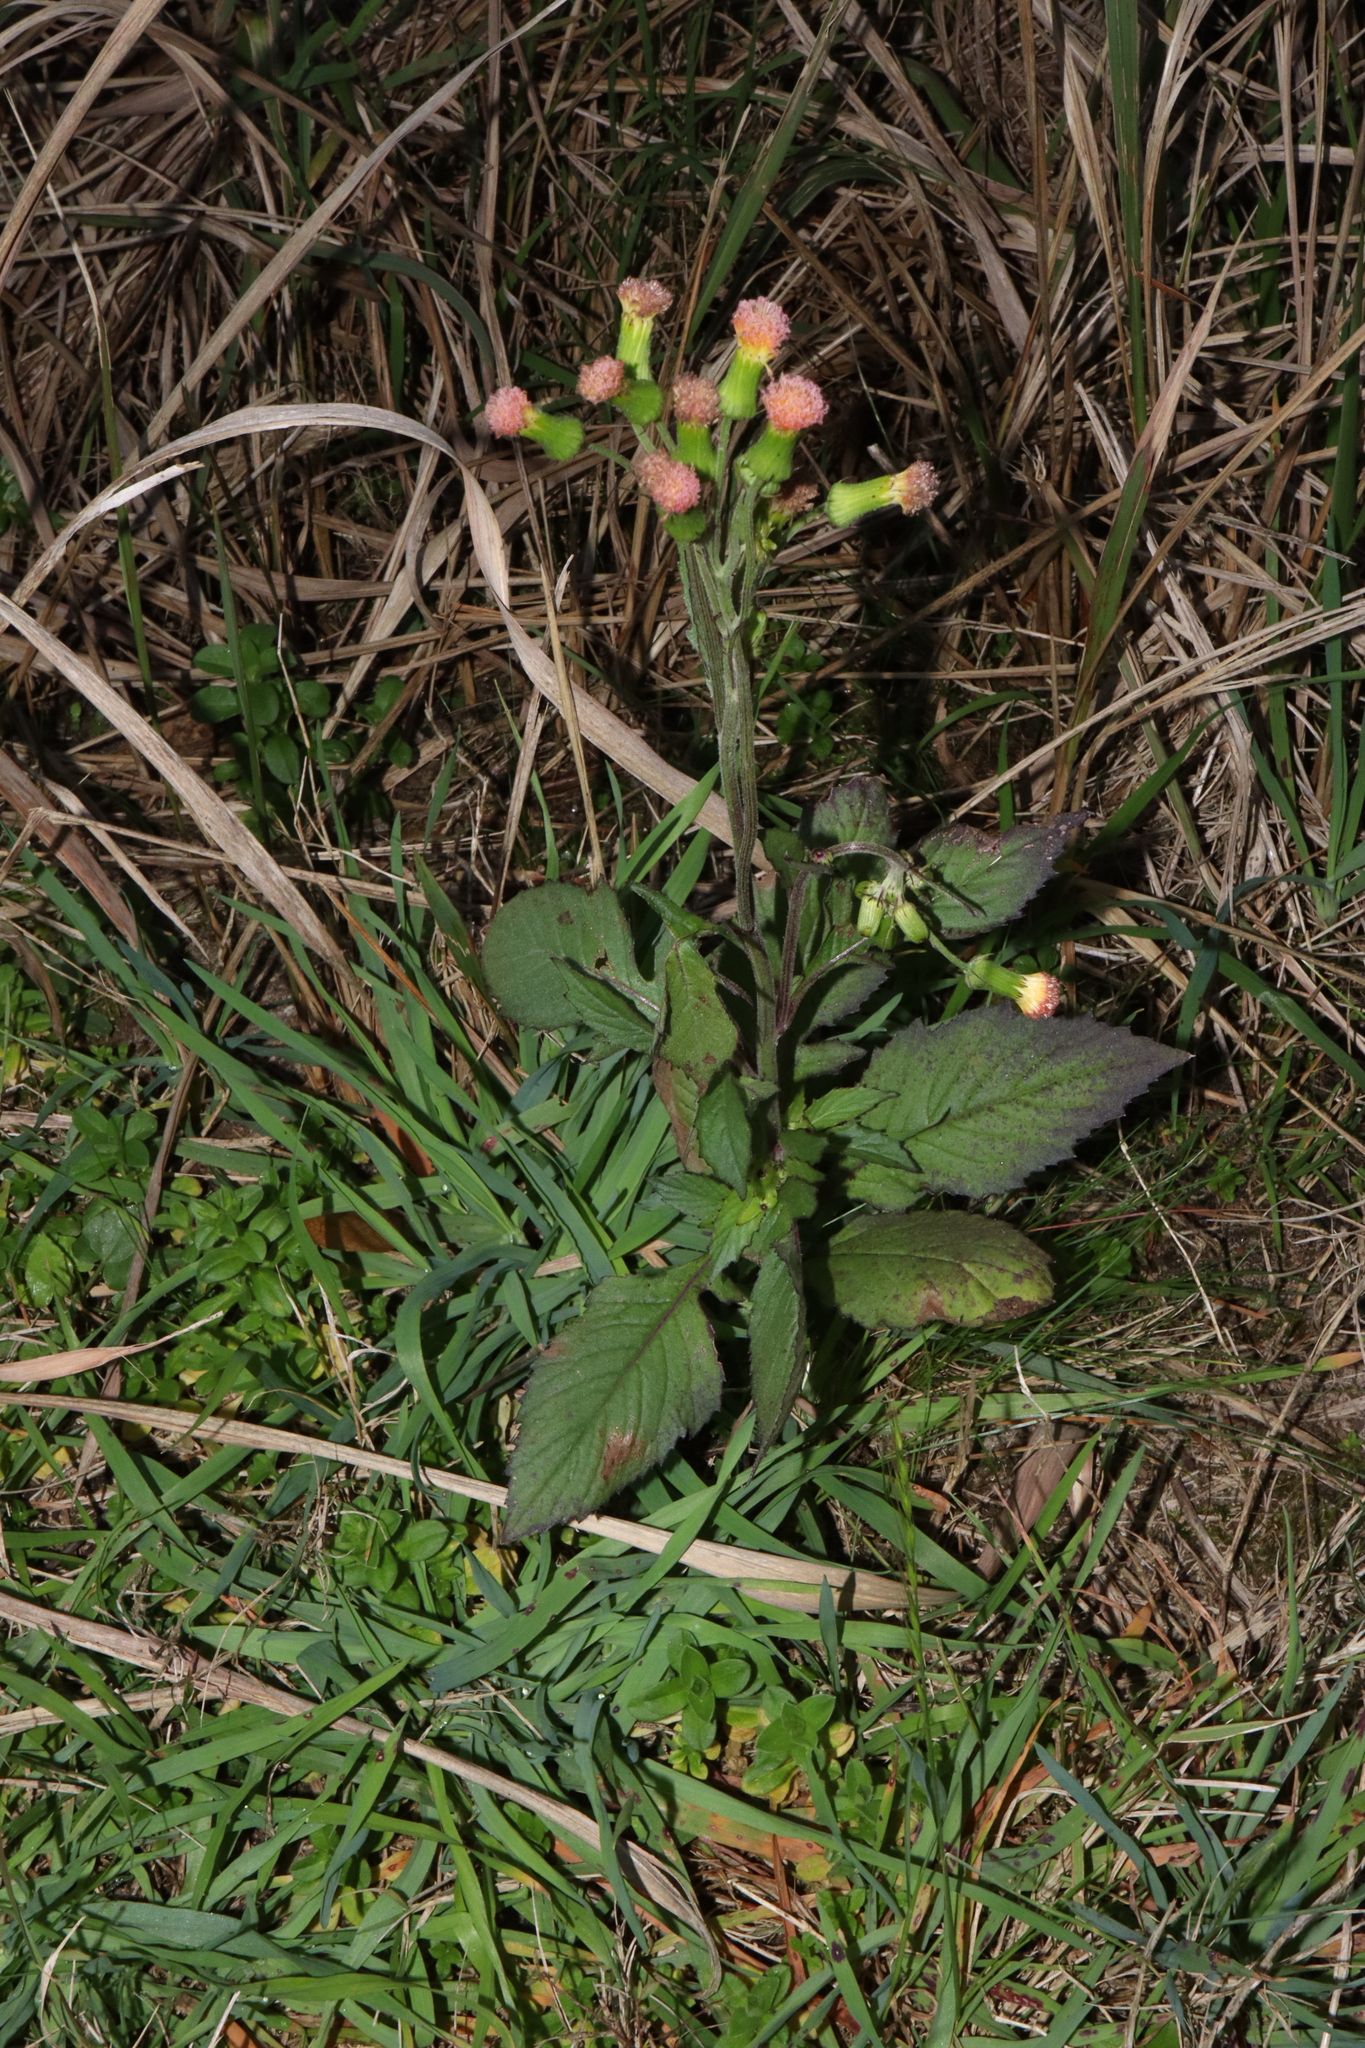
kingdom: Plantae
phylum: Tracheophyta
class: Magnoliopsida
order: Asterales
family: Asteraceae
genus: Crassocephalum
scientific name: Crassocephalum crepidioides
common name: Redflower ragleaf
